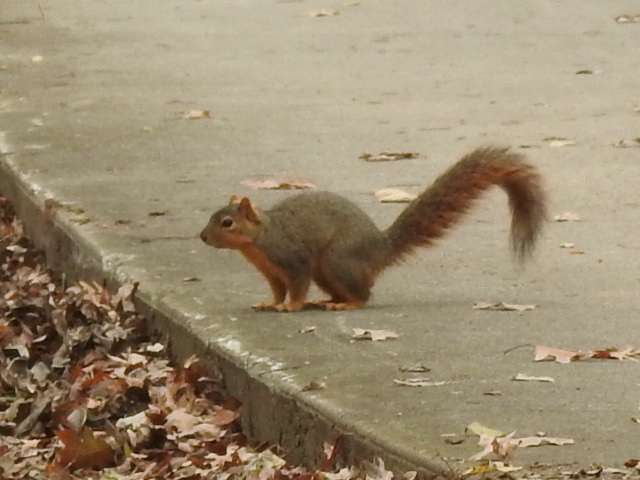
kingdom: Animalia
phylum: Chordata
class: Mammalia
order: Rodentia
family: Sciuridae
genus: Sciurus
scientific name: Sciurus niger
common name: Fox squirrel
